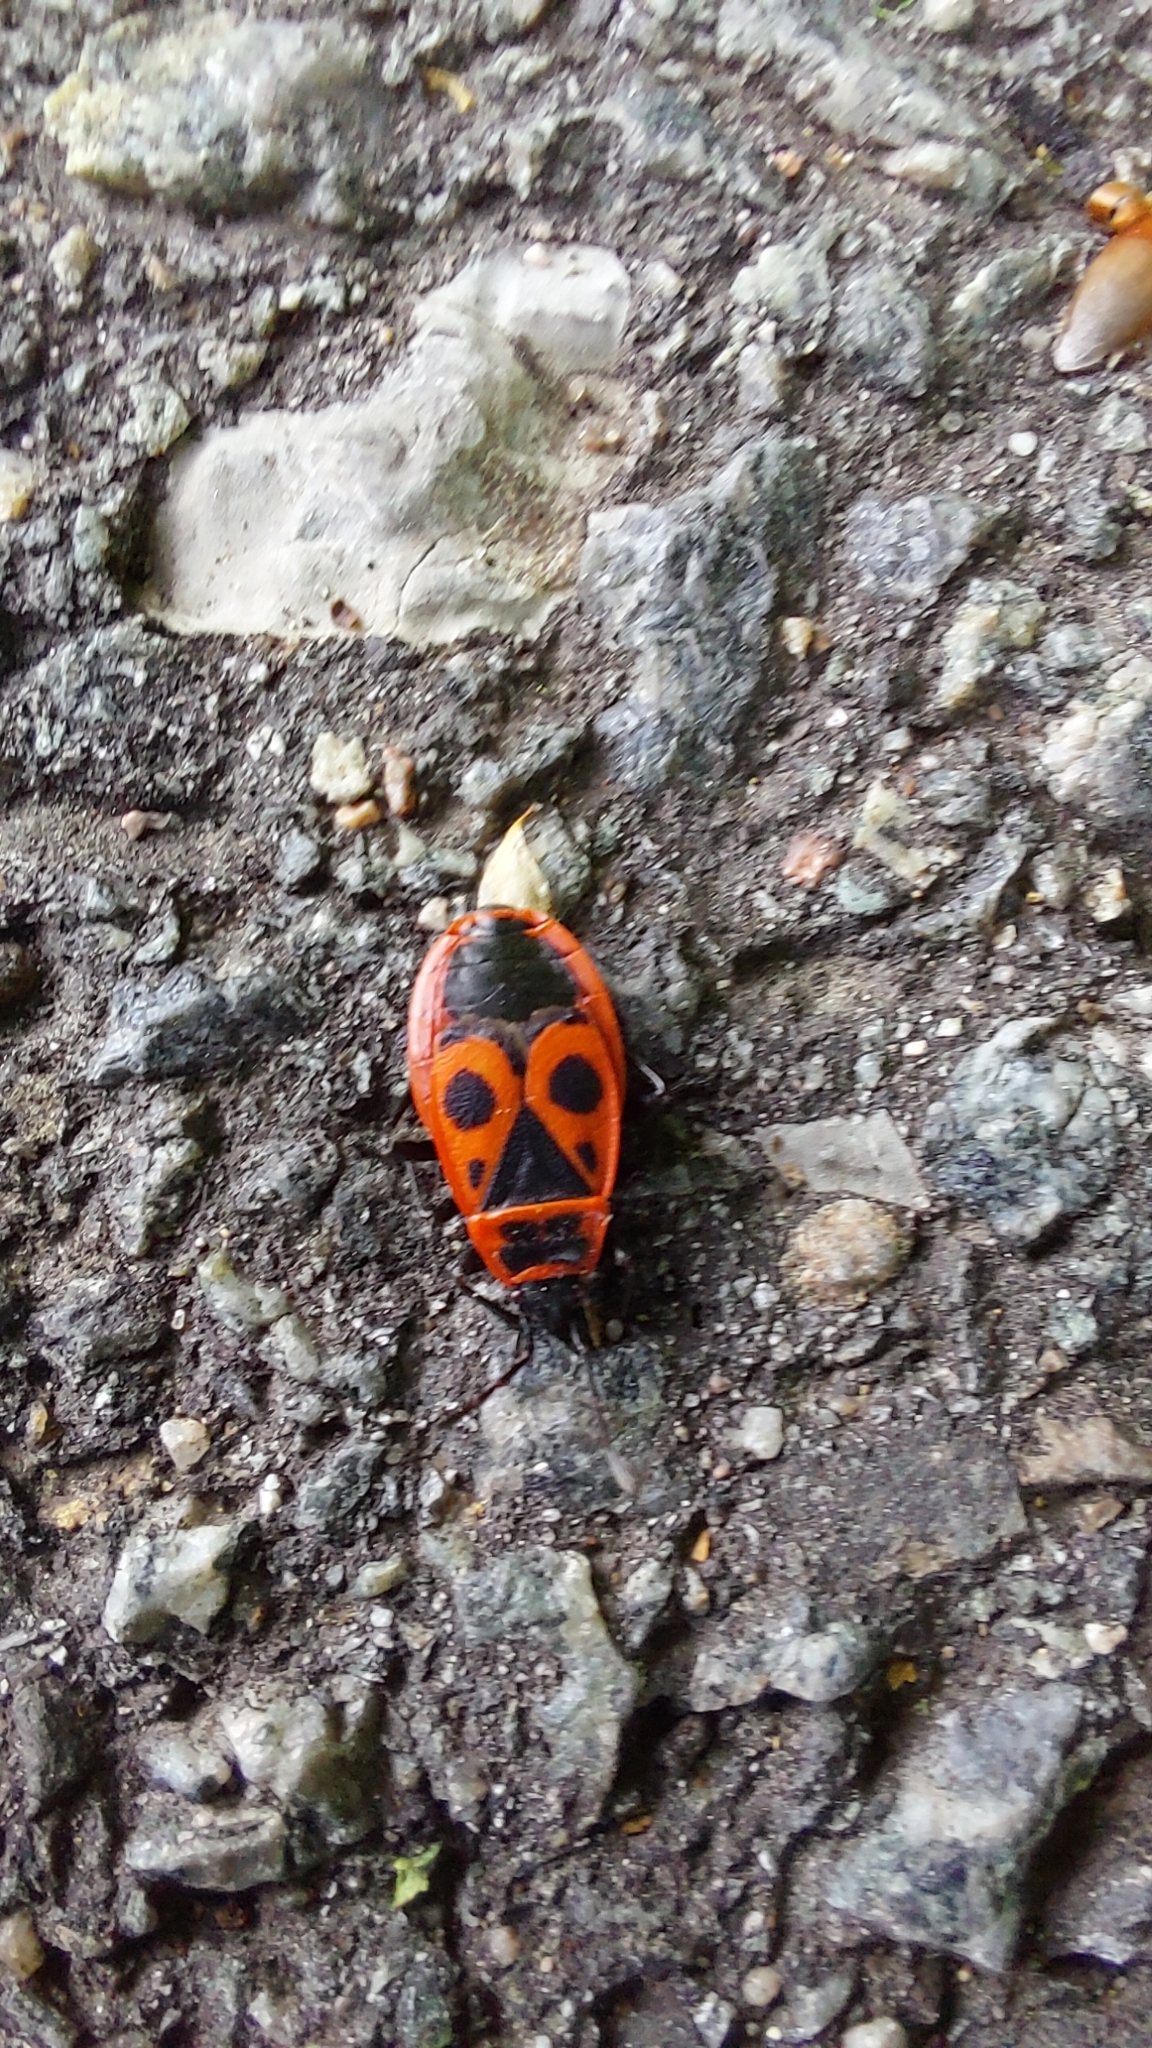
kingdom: Animalia
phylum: Arthropoda
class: Insecta
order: Hemiptera
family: Pyrrhocoridae
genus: Pyrrhocoris
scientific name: Pyrrhocoris apterus
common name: Firebug
